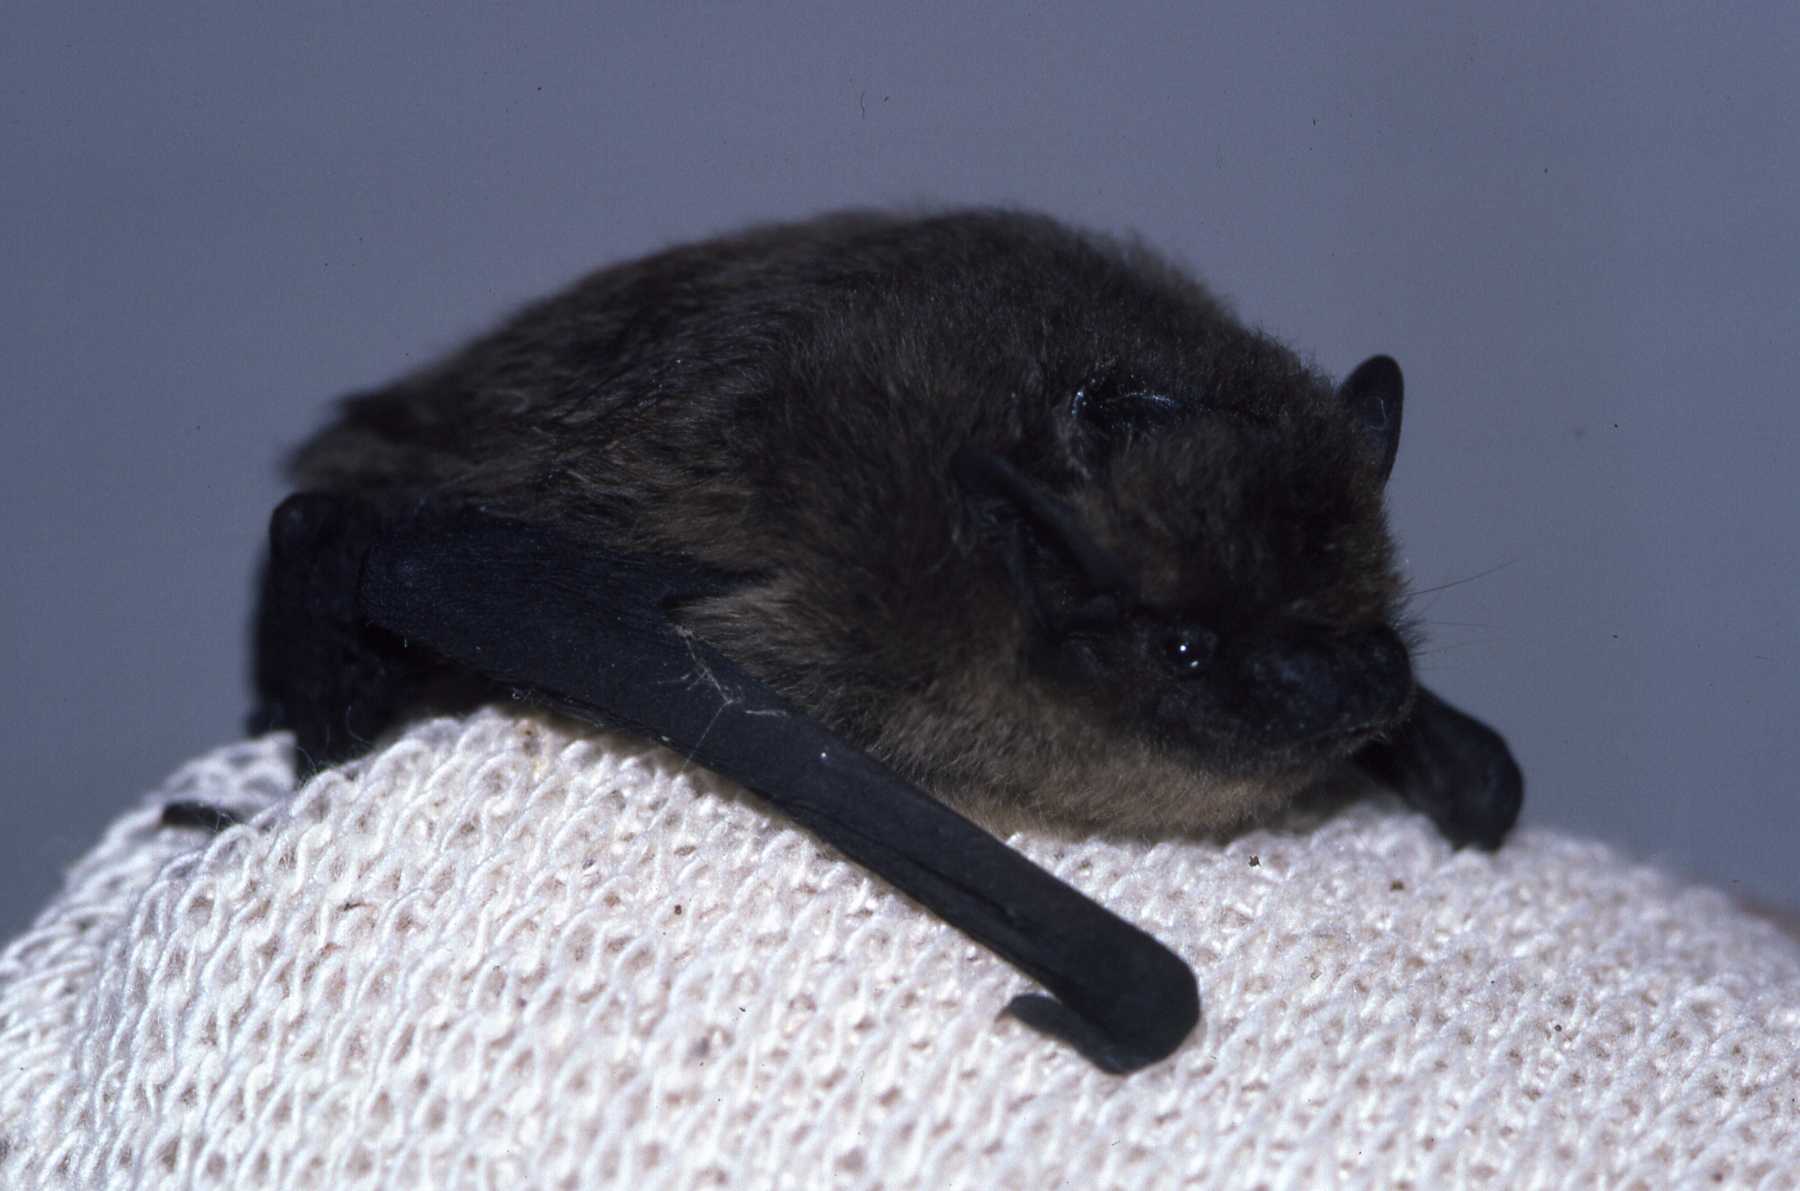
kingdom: Animalia
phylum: Chordata
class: Mammalia
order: Chiroptera
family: Vespertilionidae
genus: Pipistrellus
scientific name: Pipistrellus pipistrellus
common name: Common pipistrelle
